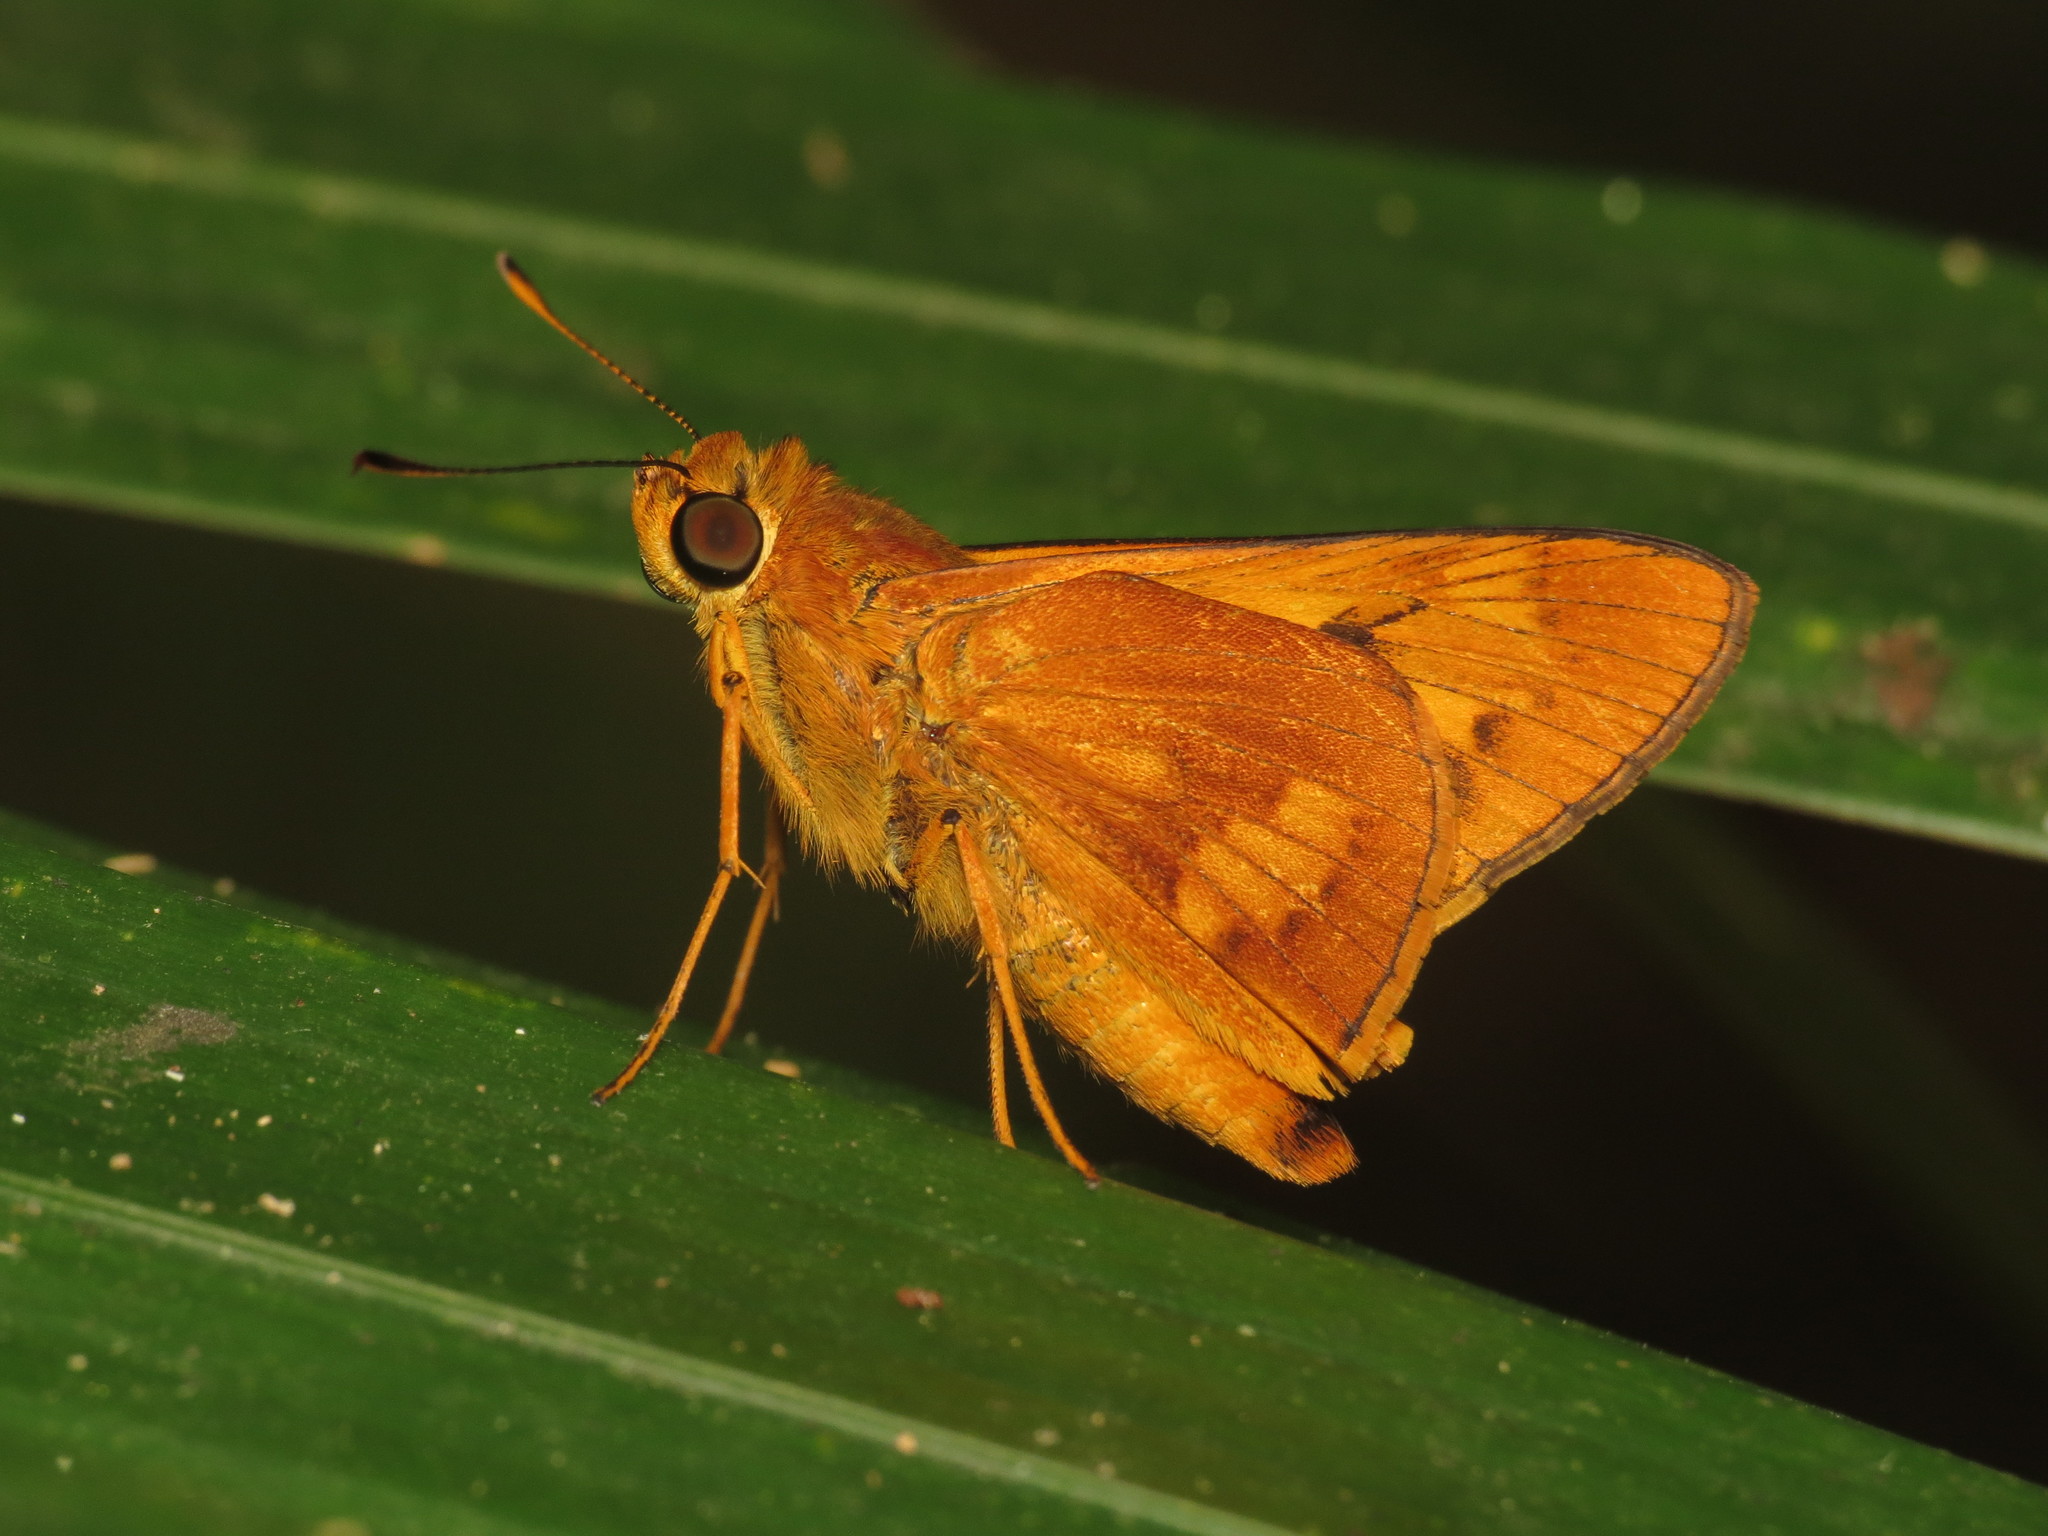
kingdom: Animalia
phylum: Arthropoda
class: Insecta
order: Lepidoptera
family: Hesperiidae
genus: Cephrenes
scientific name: Cephrenes augiades
